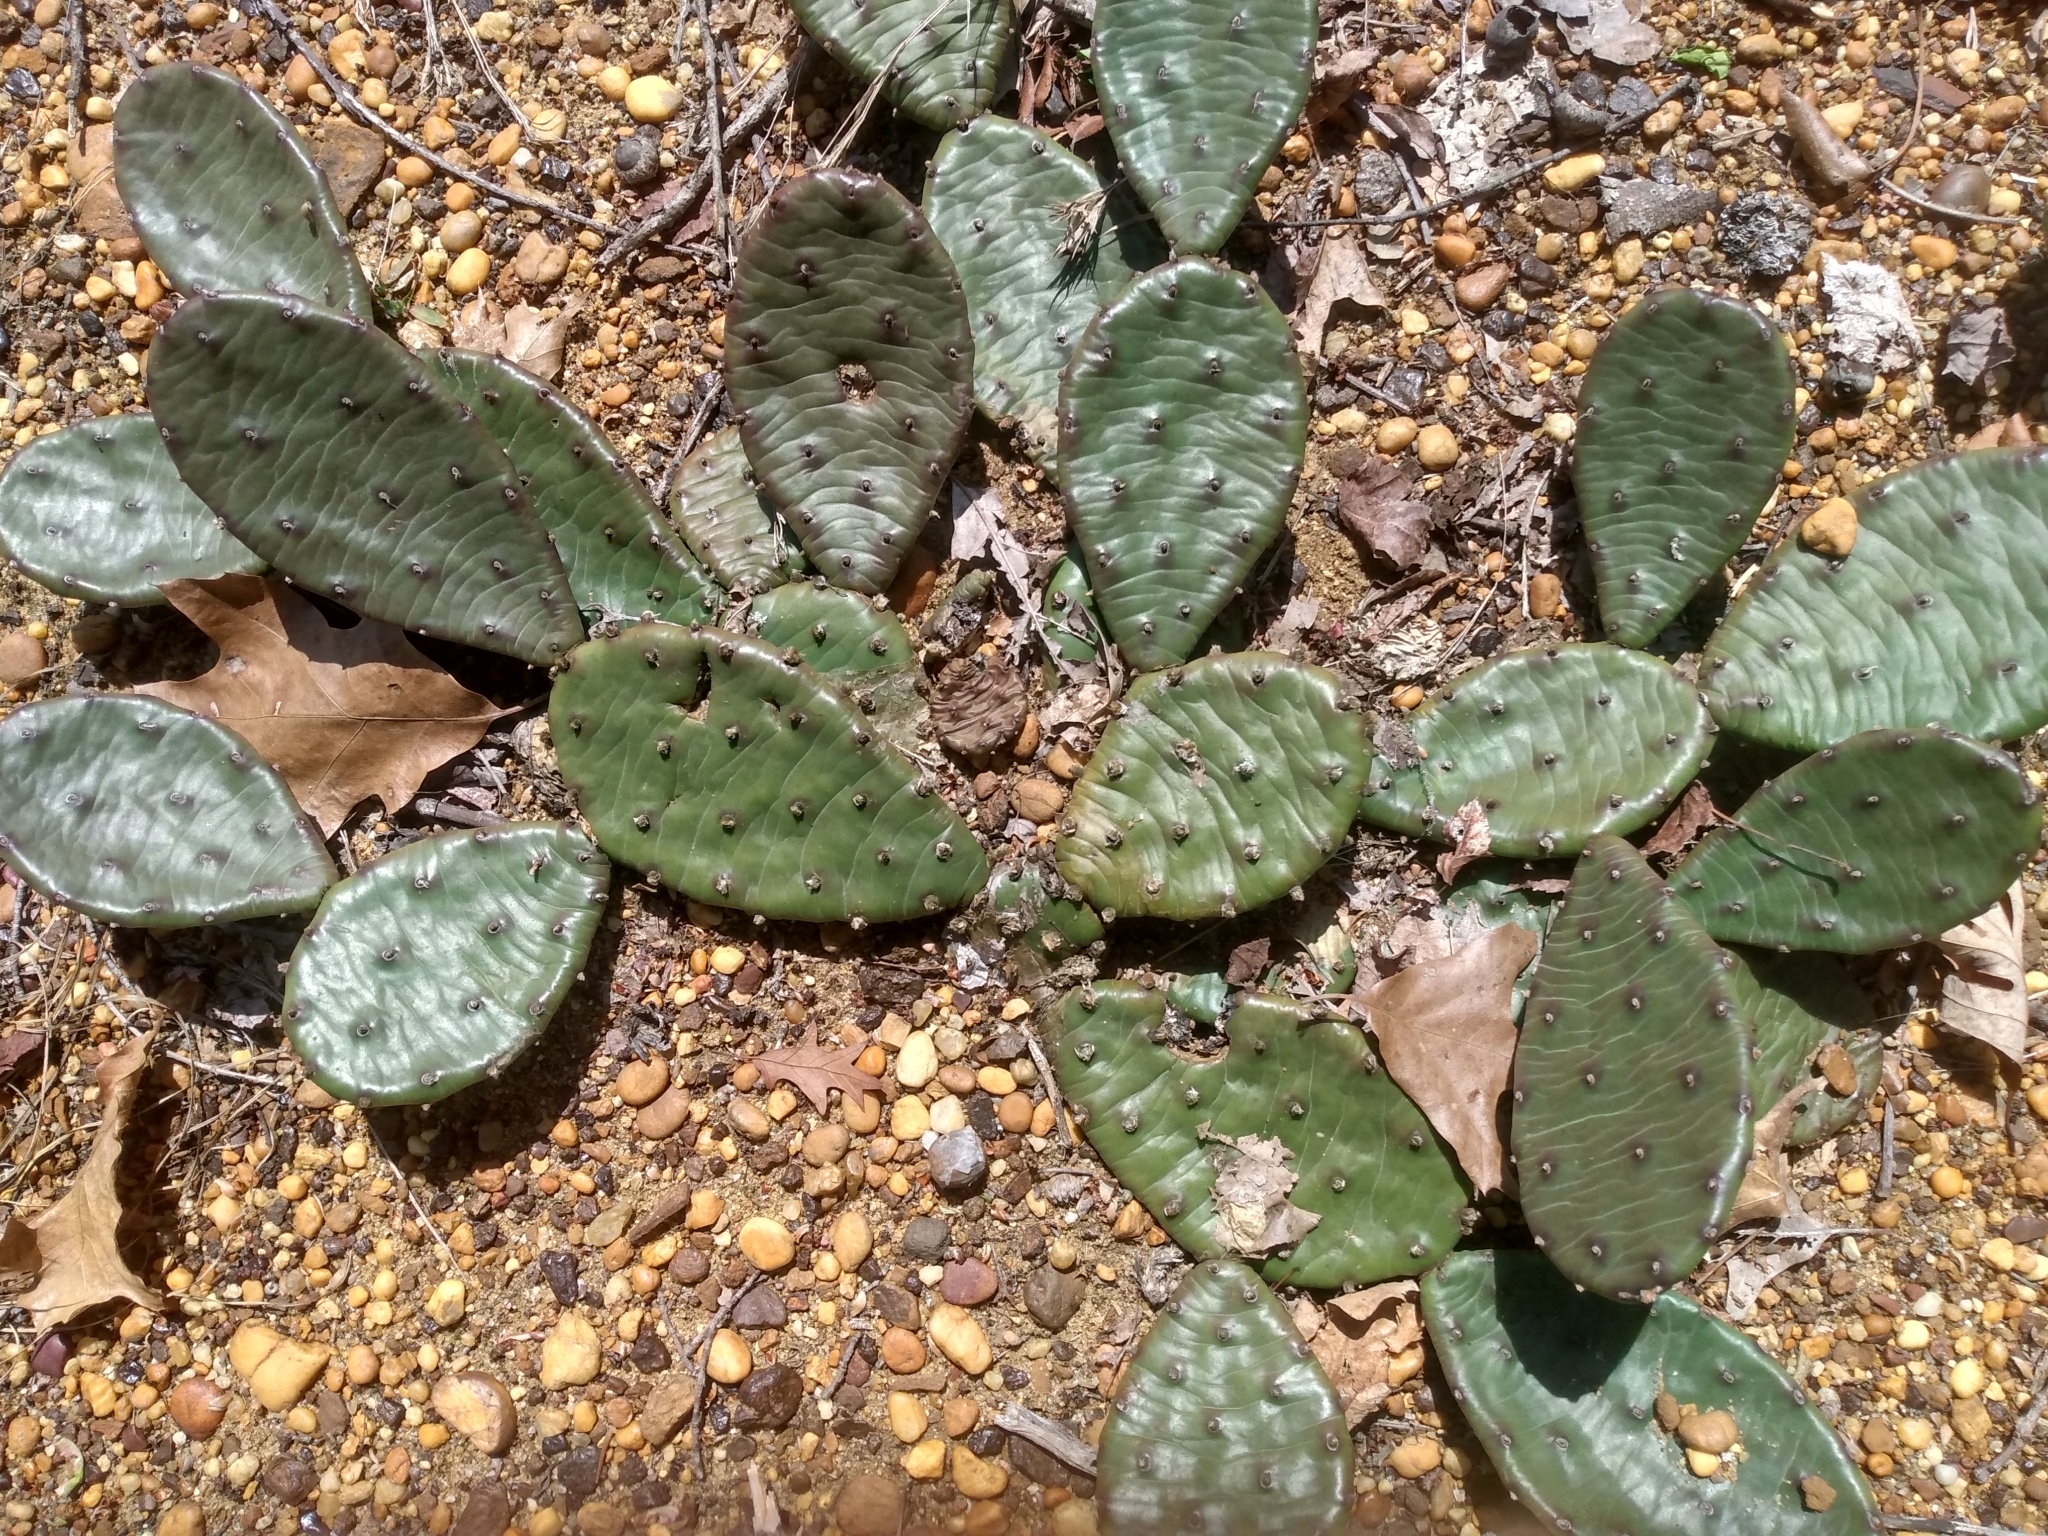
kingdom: Plantae
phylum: Tracheophyta
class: Magnoliopsida
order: Caryophyllales
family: Cactaceae
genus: Opuntia
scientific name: Opuntia humifusa
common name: Eastern prickly-pear
